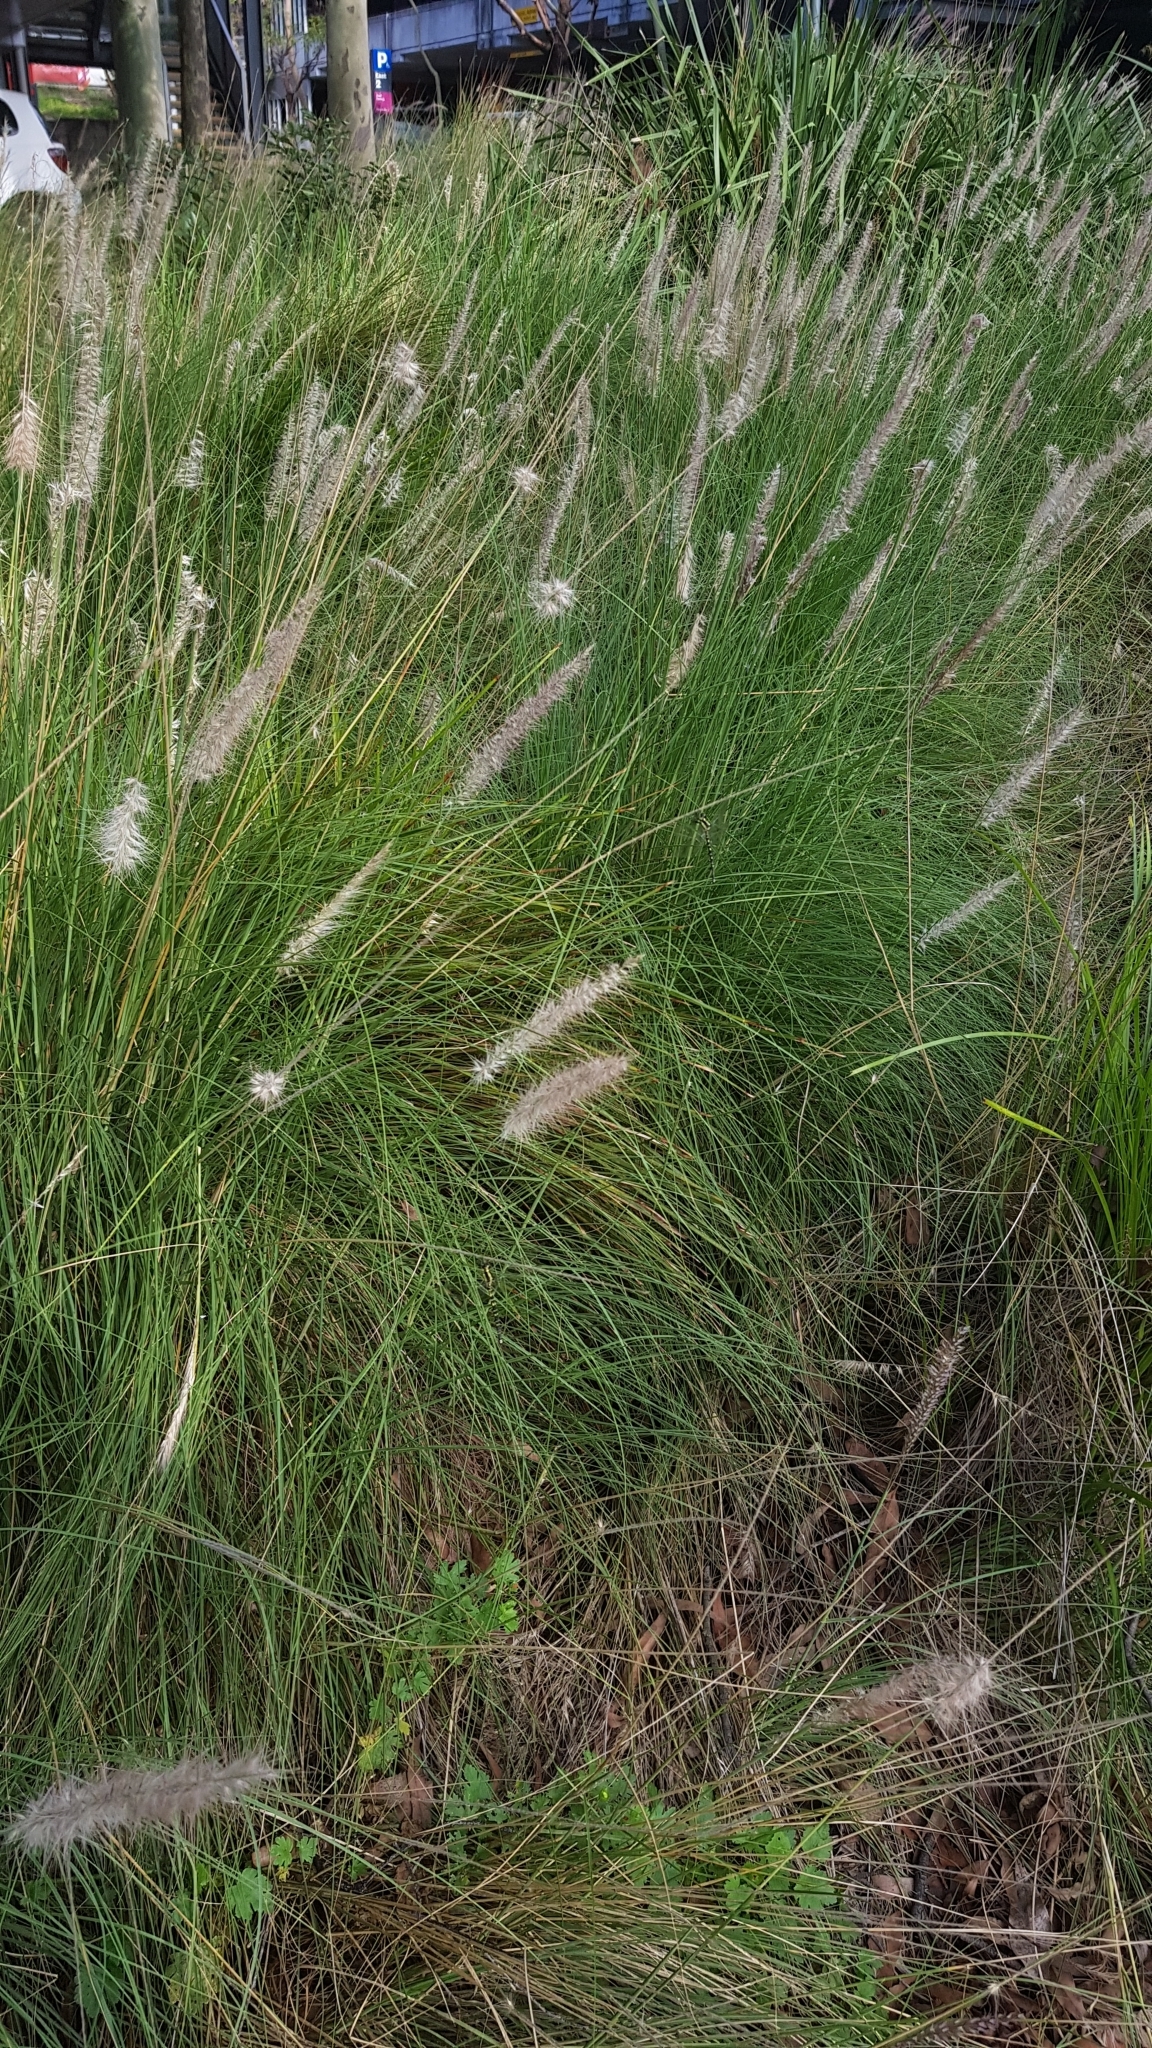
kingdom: Animalia
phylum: Arthropoda
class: Insecta
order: Odonata
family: Synthemistidae
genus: Choristhemis
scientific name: Choristhemis flavoterminata
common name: Yellow-tipped tigertail
